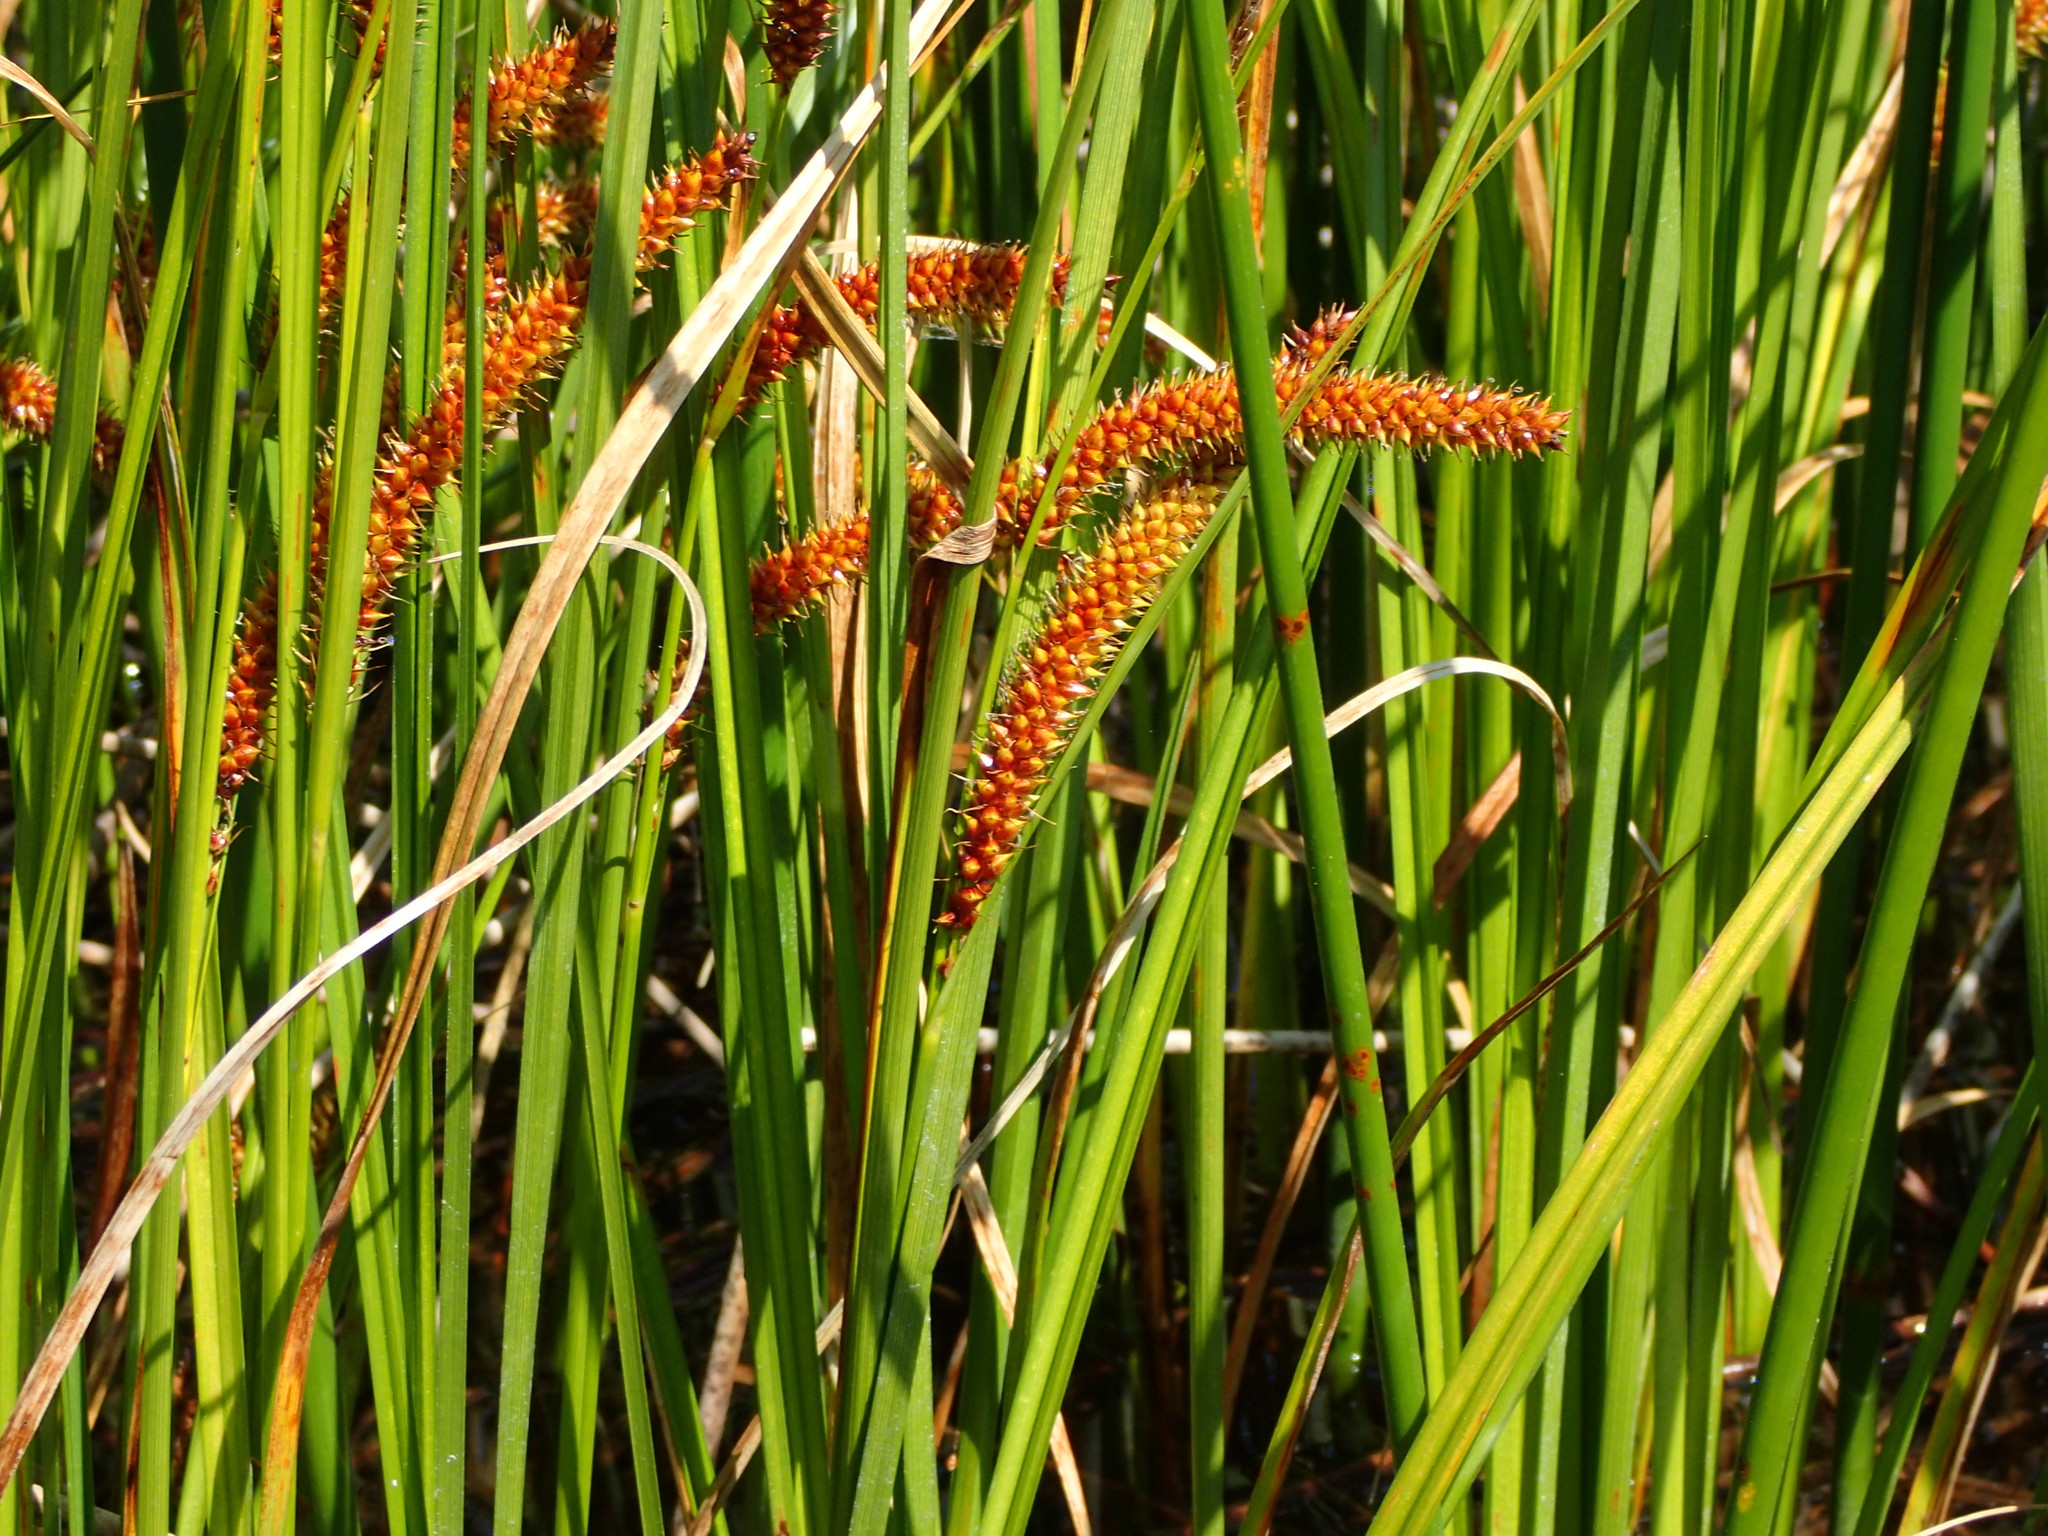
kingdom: Plantae
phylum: Tracheophyta
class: Liliopsida
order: Poales
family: Cyperaceae
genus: Carex
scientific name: Carex utriculata
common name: Beaked sedge
